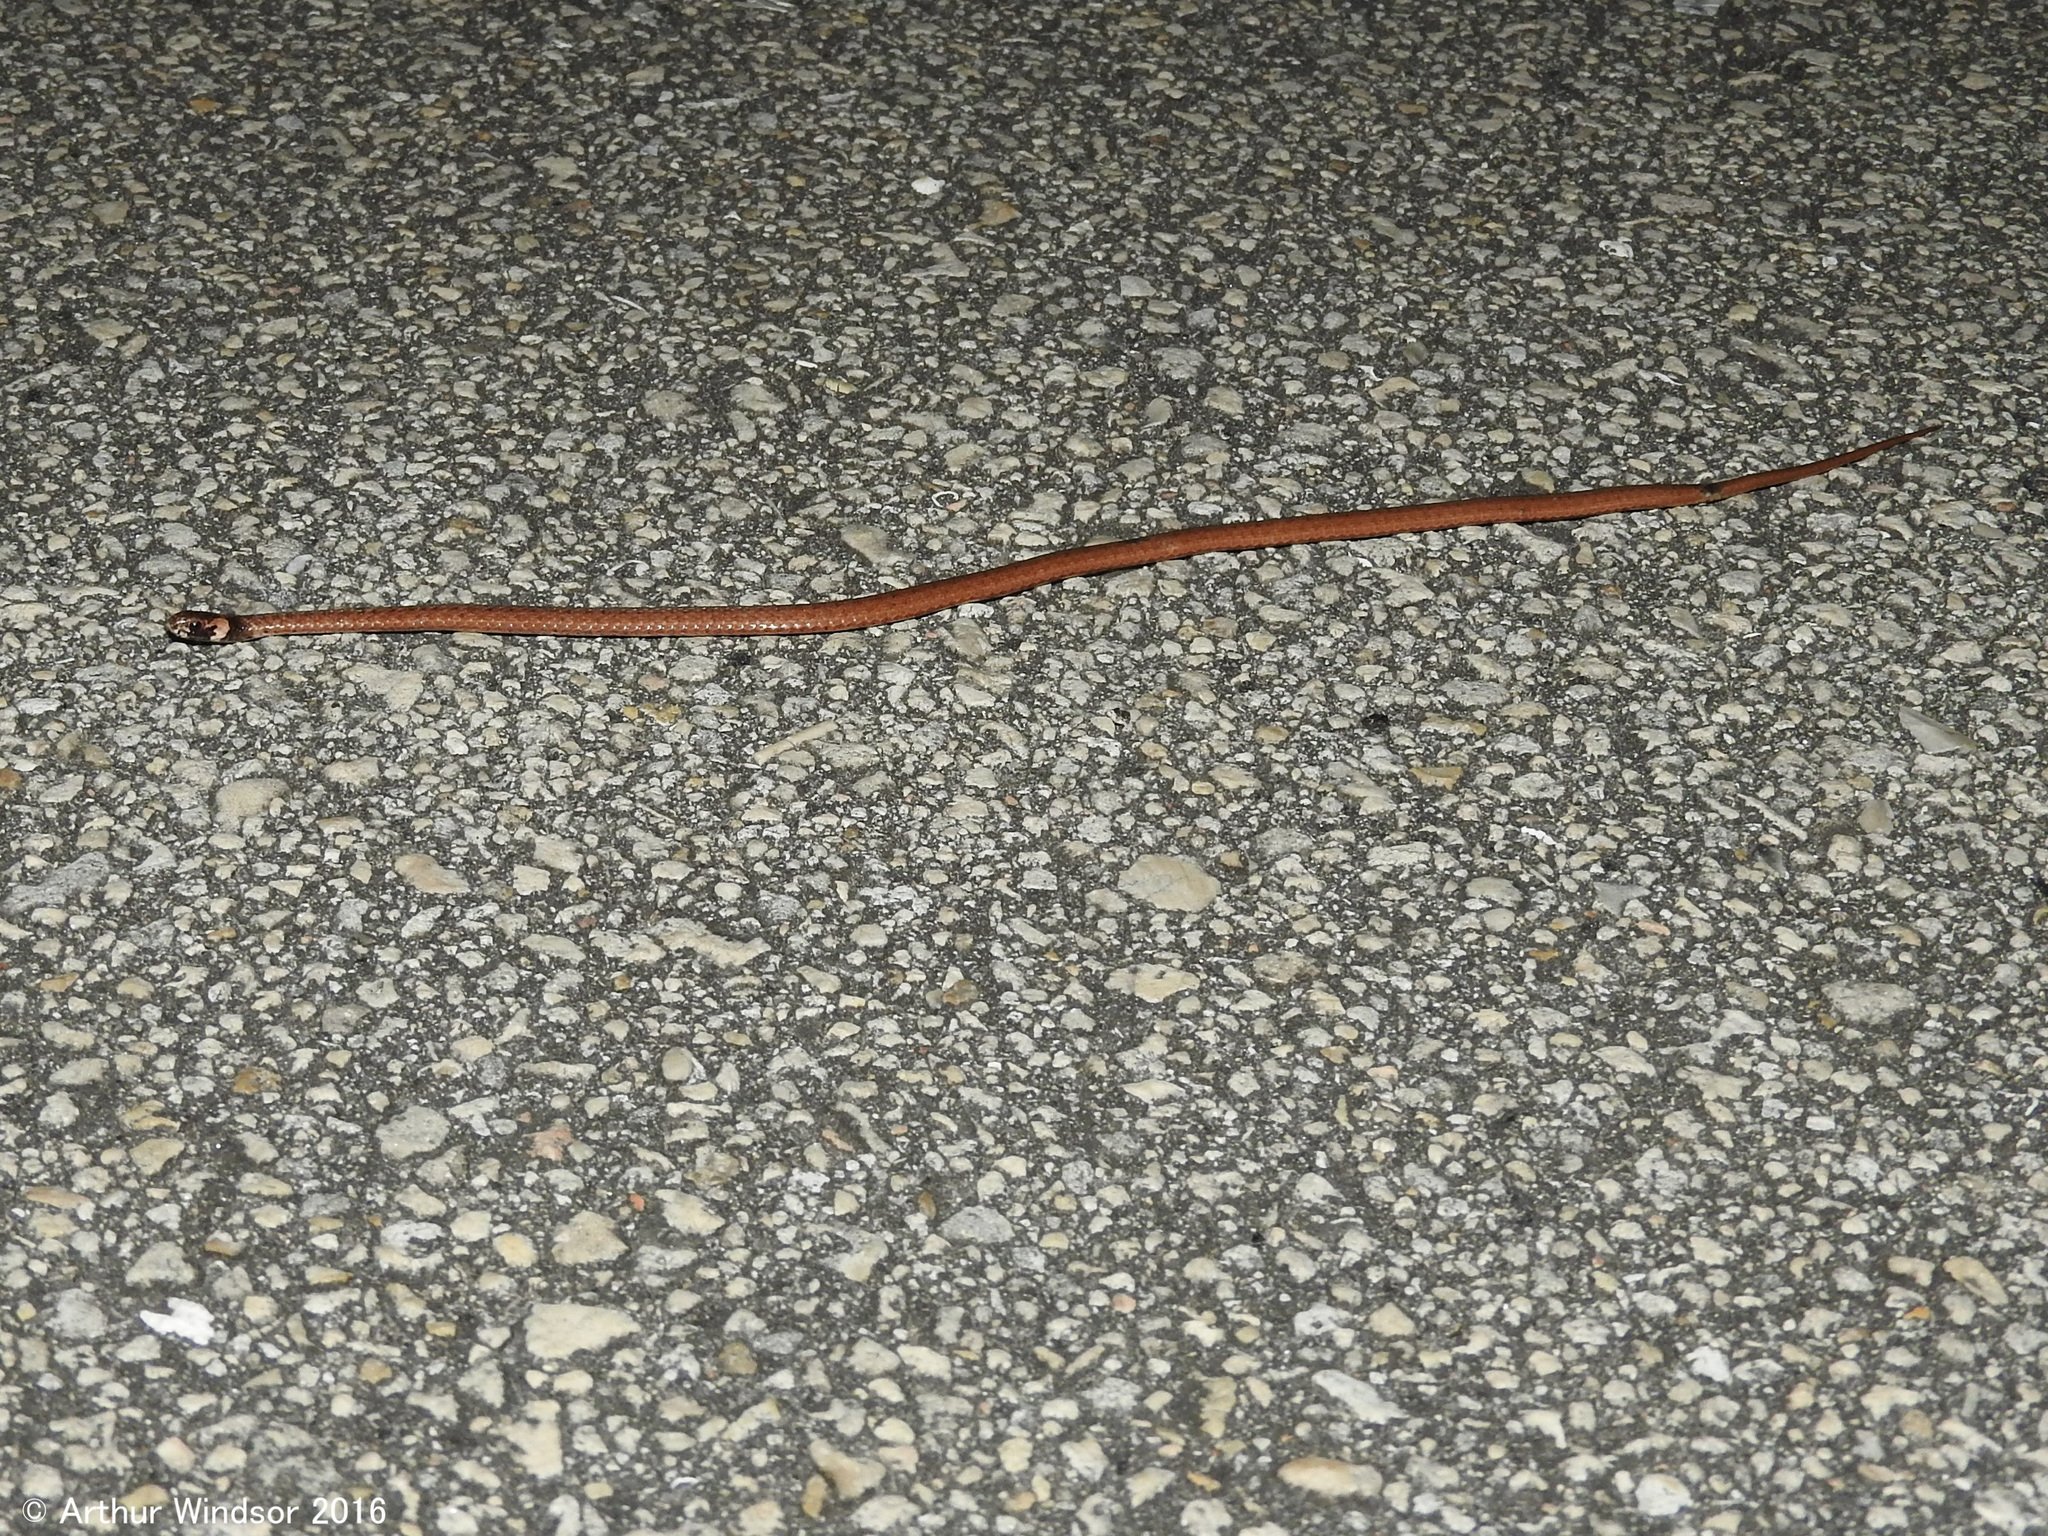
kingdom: Animalia
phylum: Chordata
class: Squamata
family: Colubridae
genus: Storeria
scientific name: Storeria victa
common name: Florida brown snake
